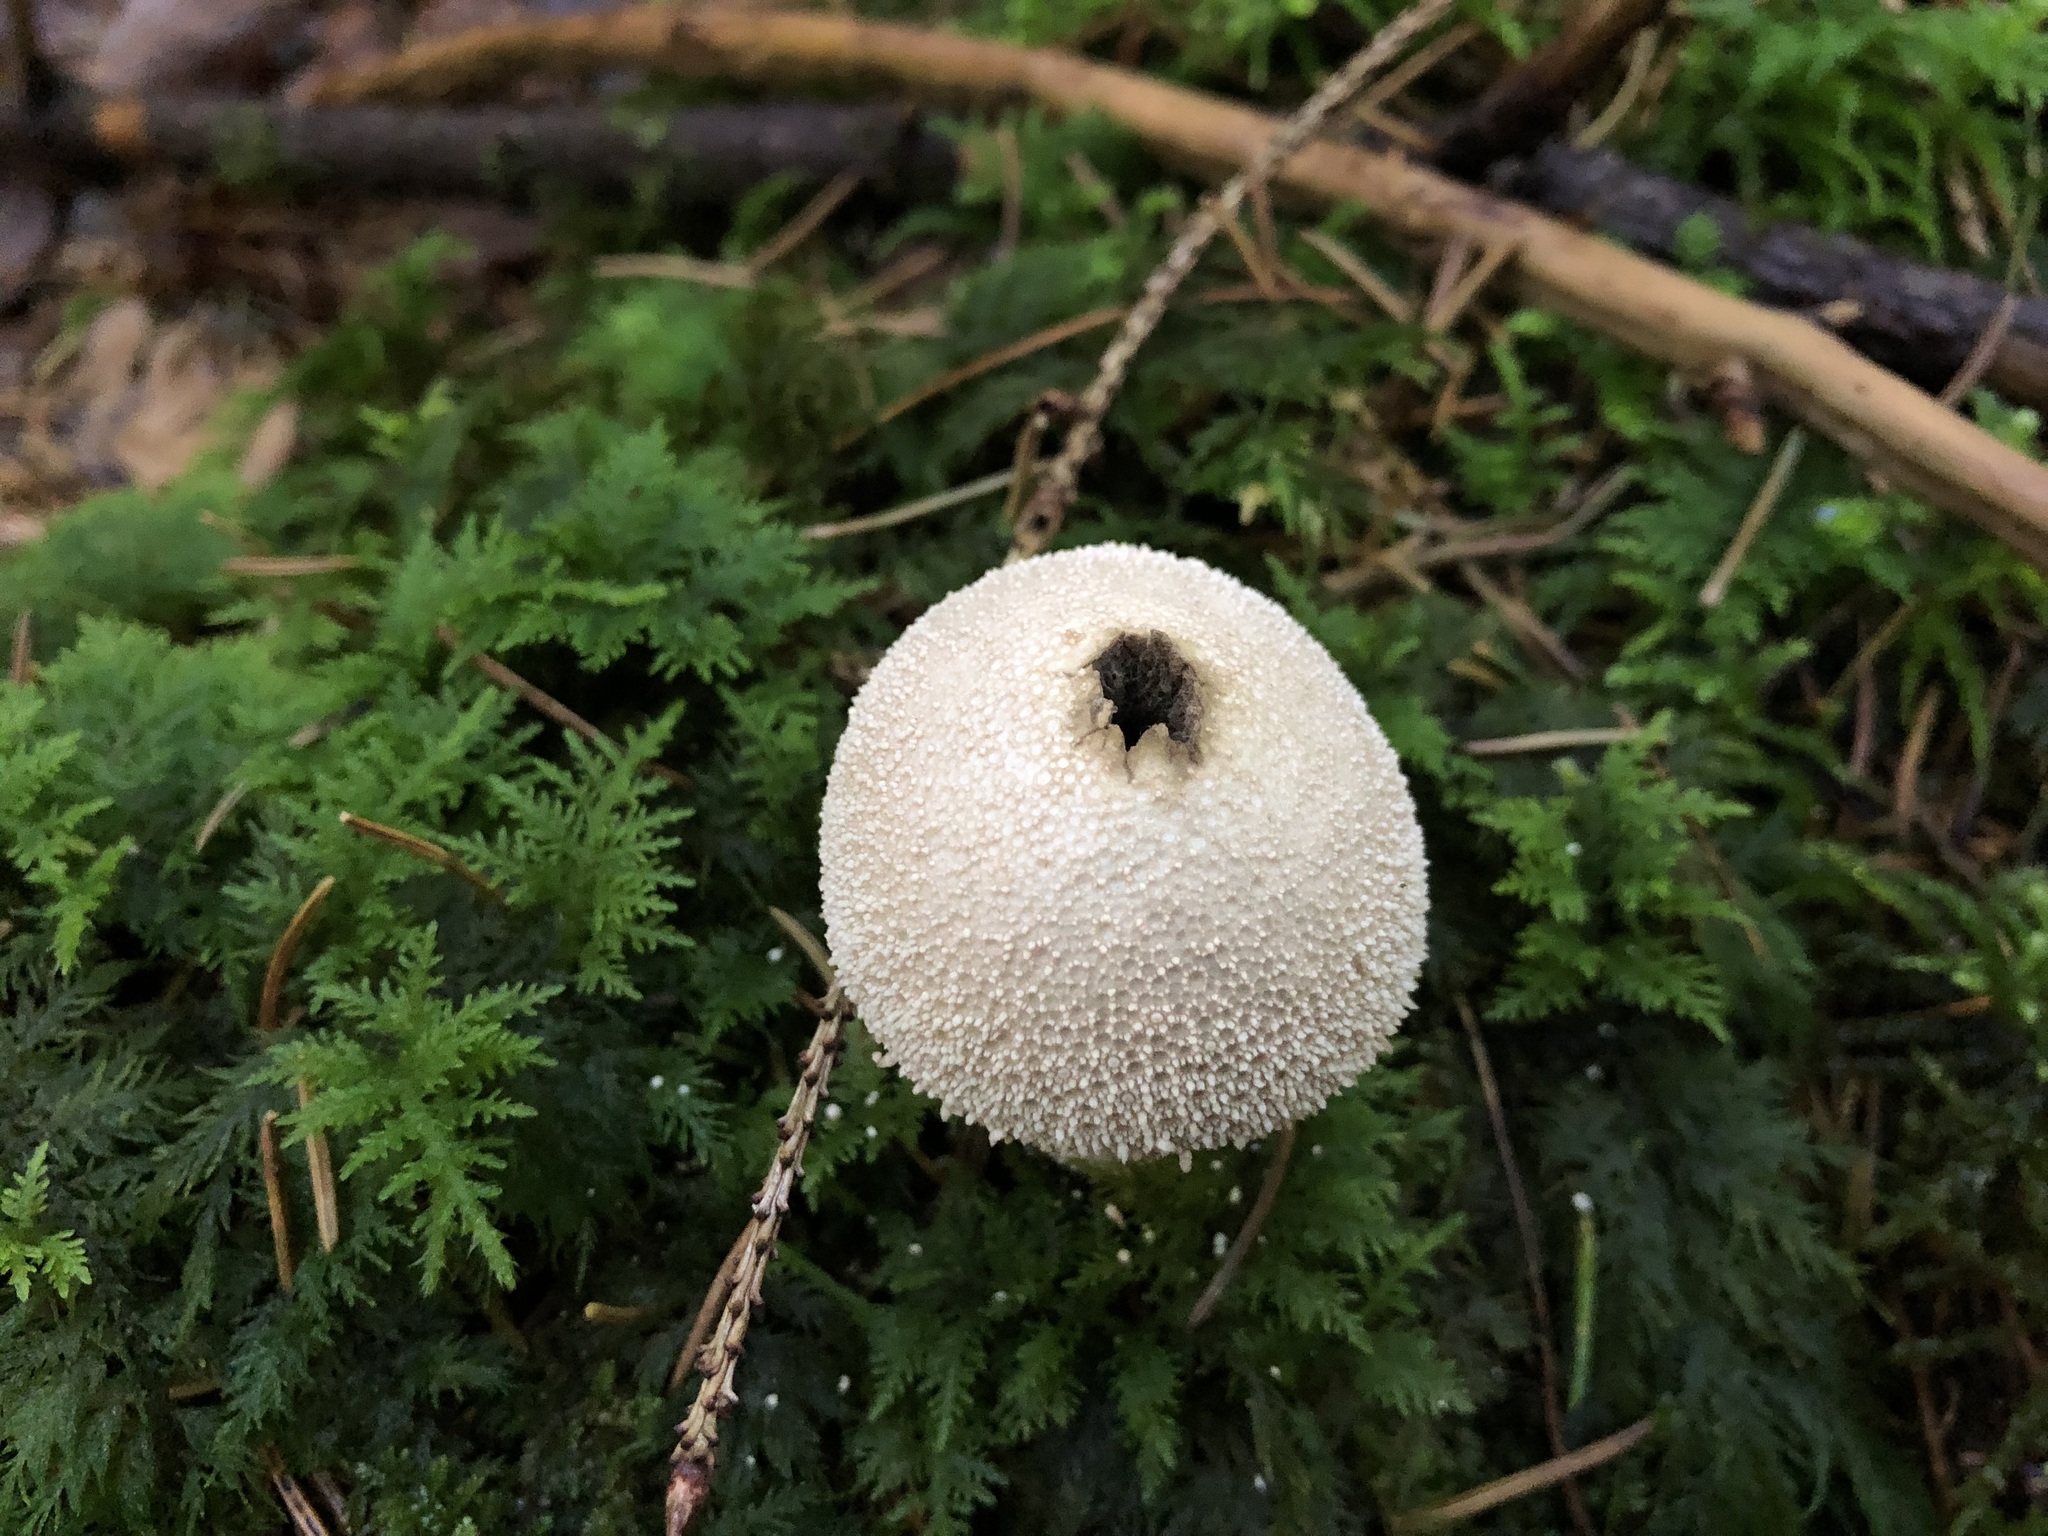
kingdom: Fungi
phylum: Basidiomycota
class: Agaricomycetes
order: Agaricales
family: Lycoperdaceae
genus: Lycoperdon
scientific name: Lycoperdon perlatum
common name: Common puffball
